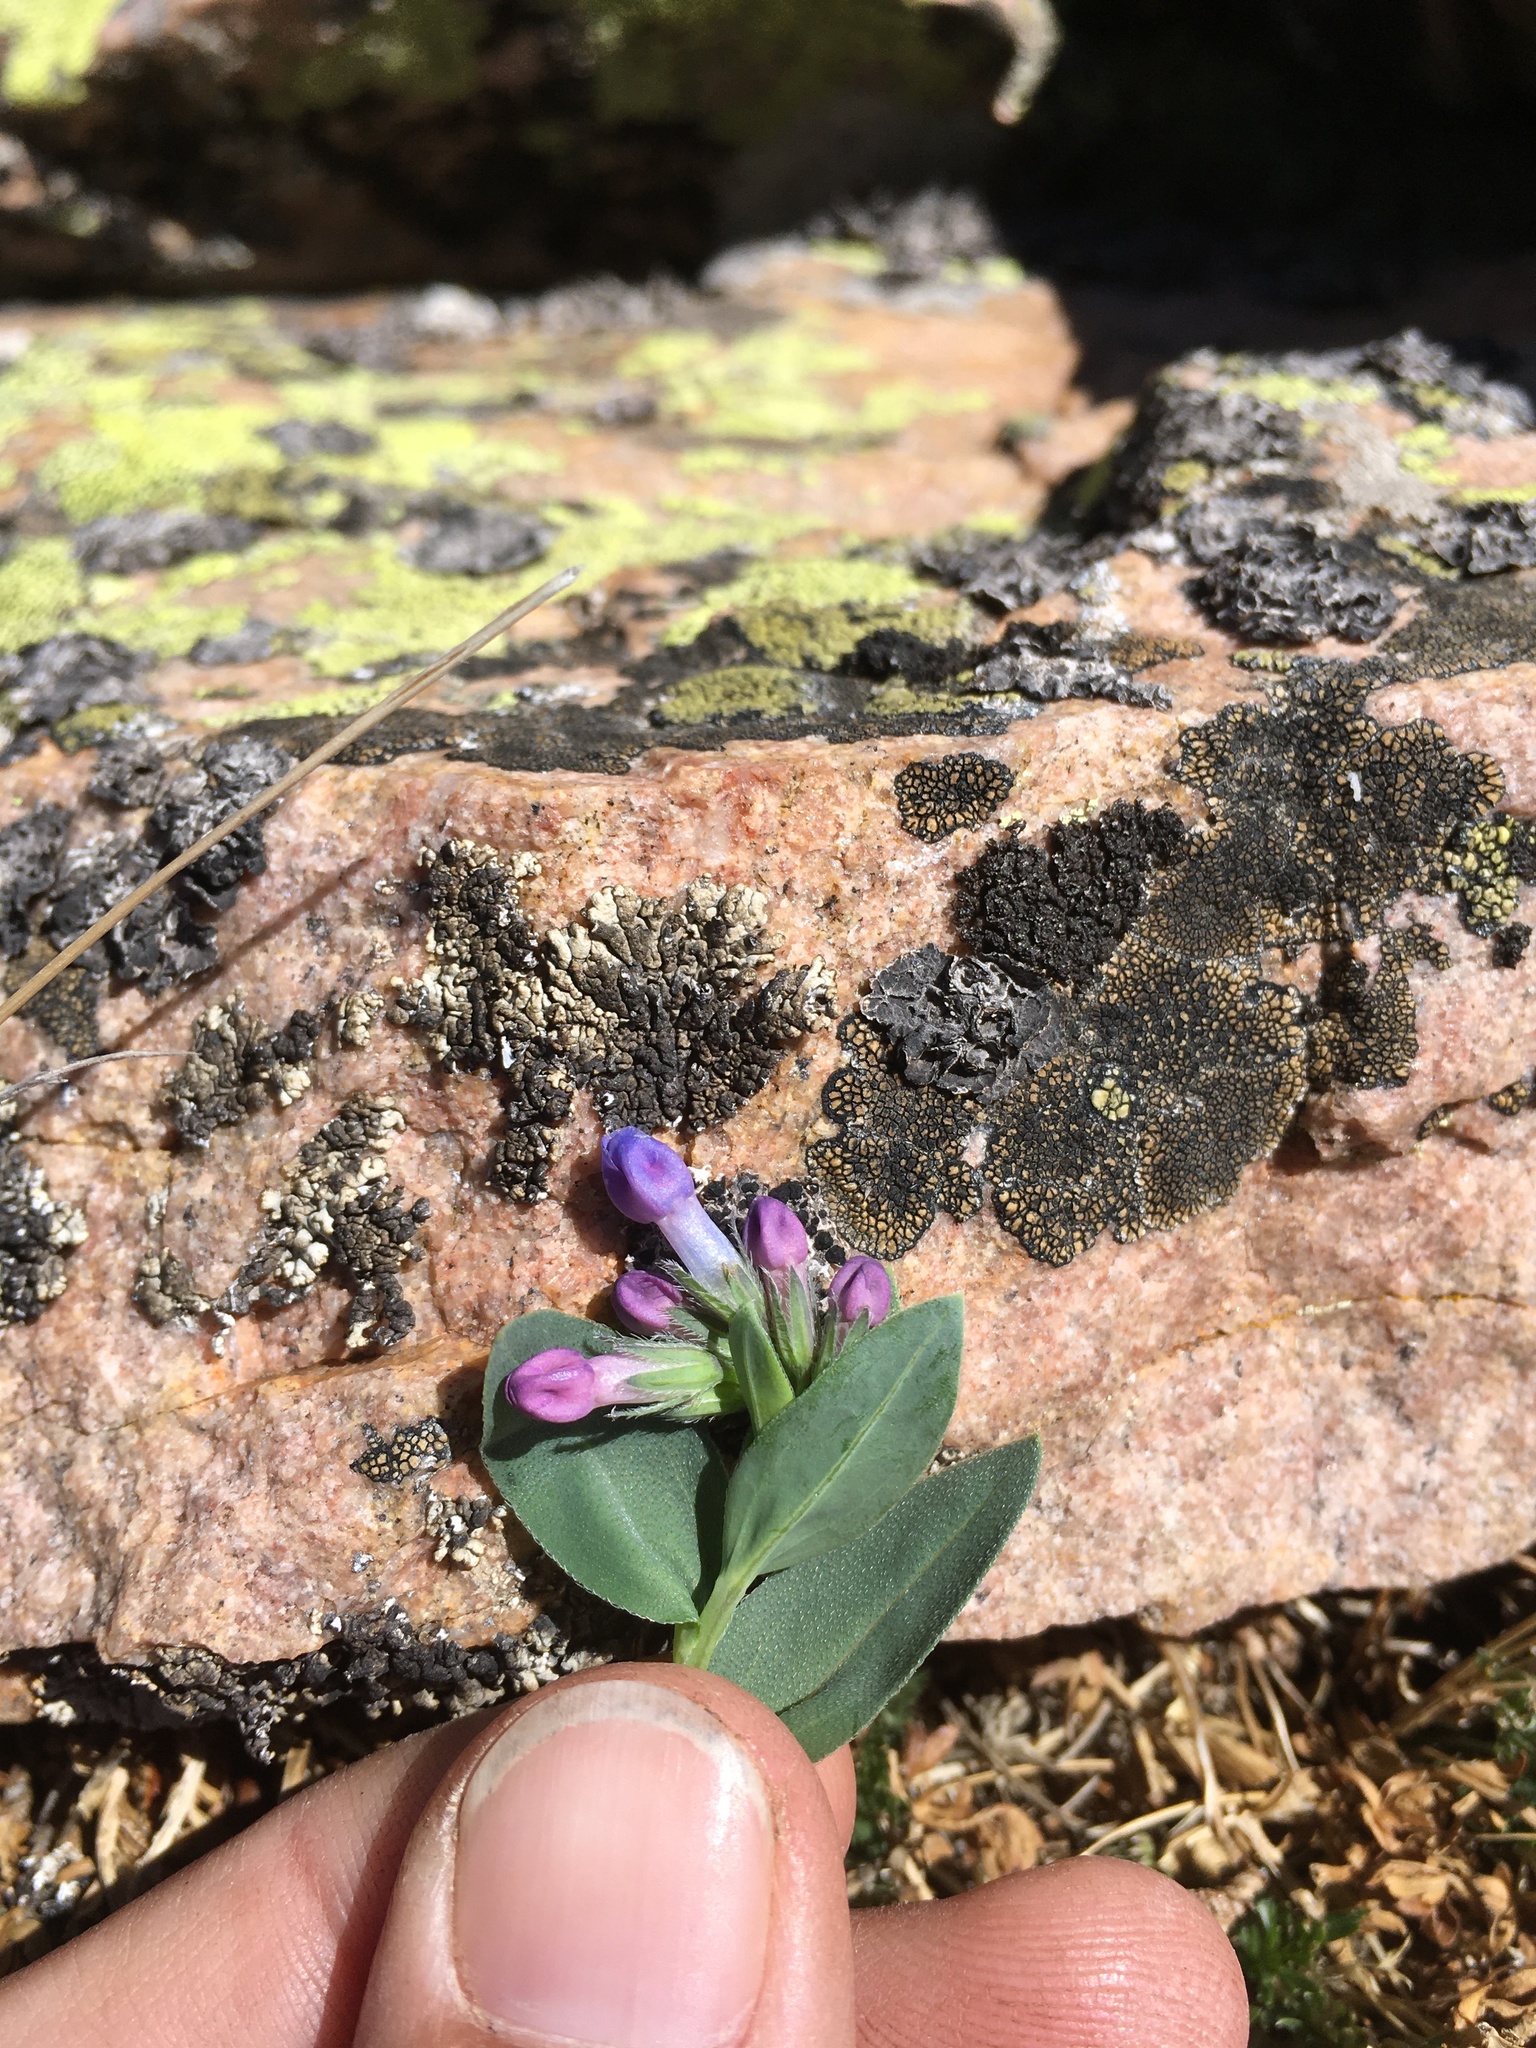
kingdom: Plantae
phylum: Tracheophyta
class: Magnoliopsida
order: Boraginales
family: Boraginaceae
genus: Mertensia
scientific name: Mertensia ovata
